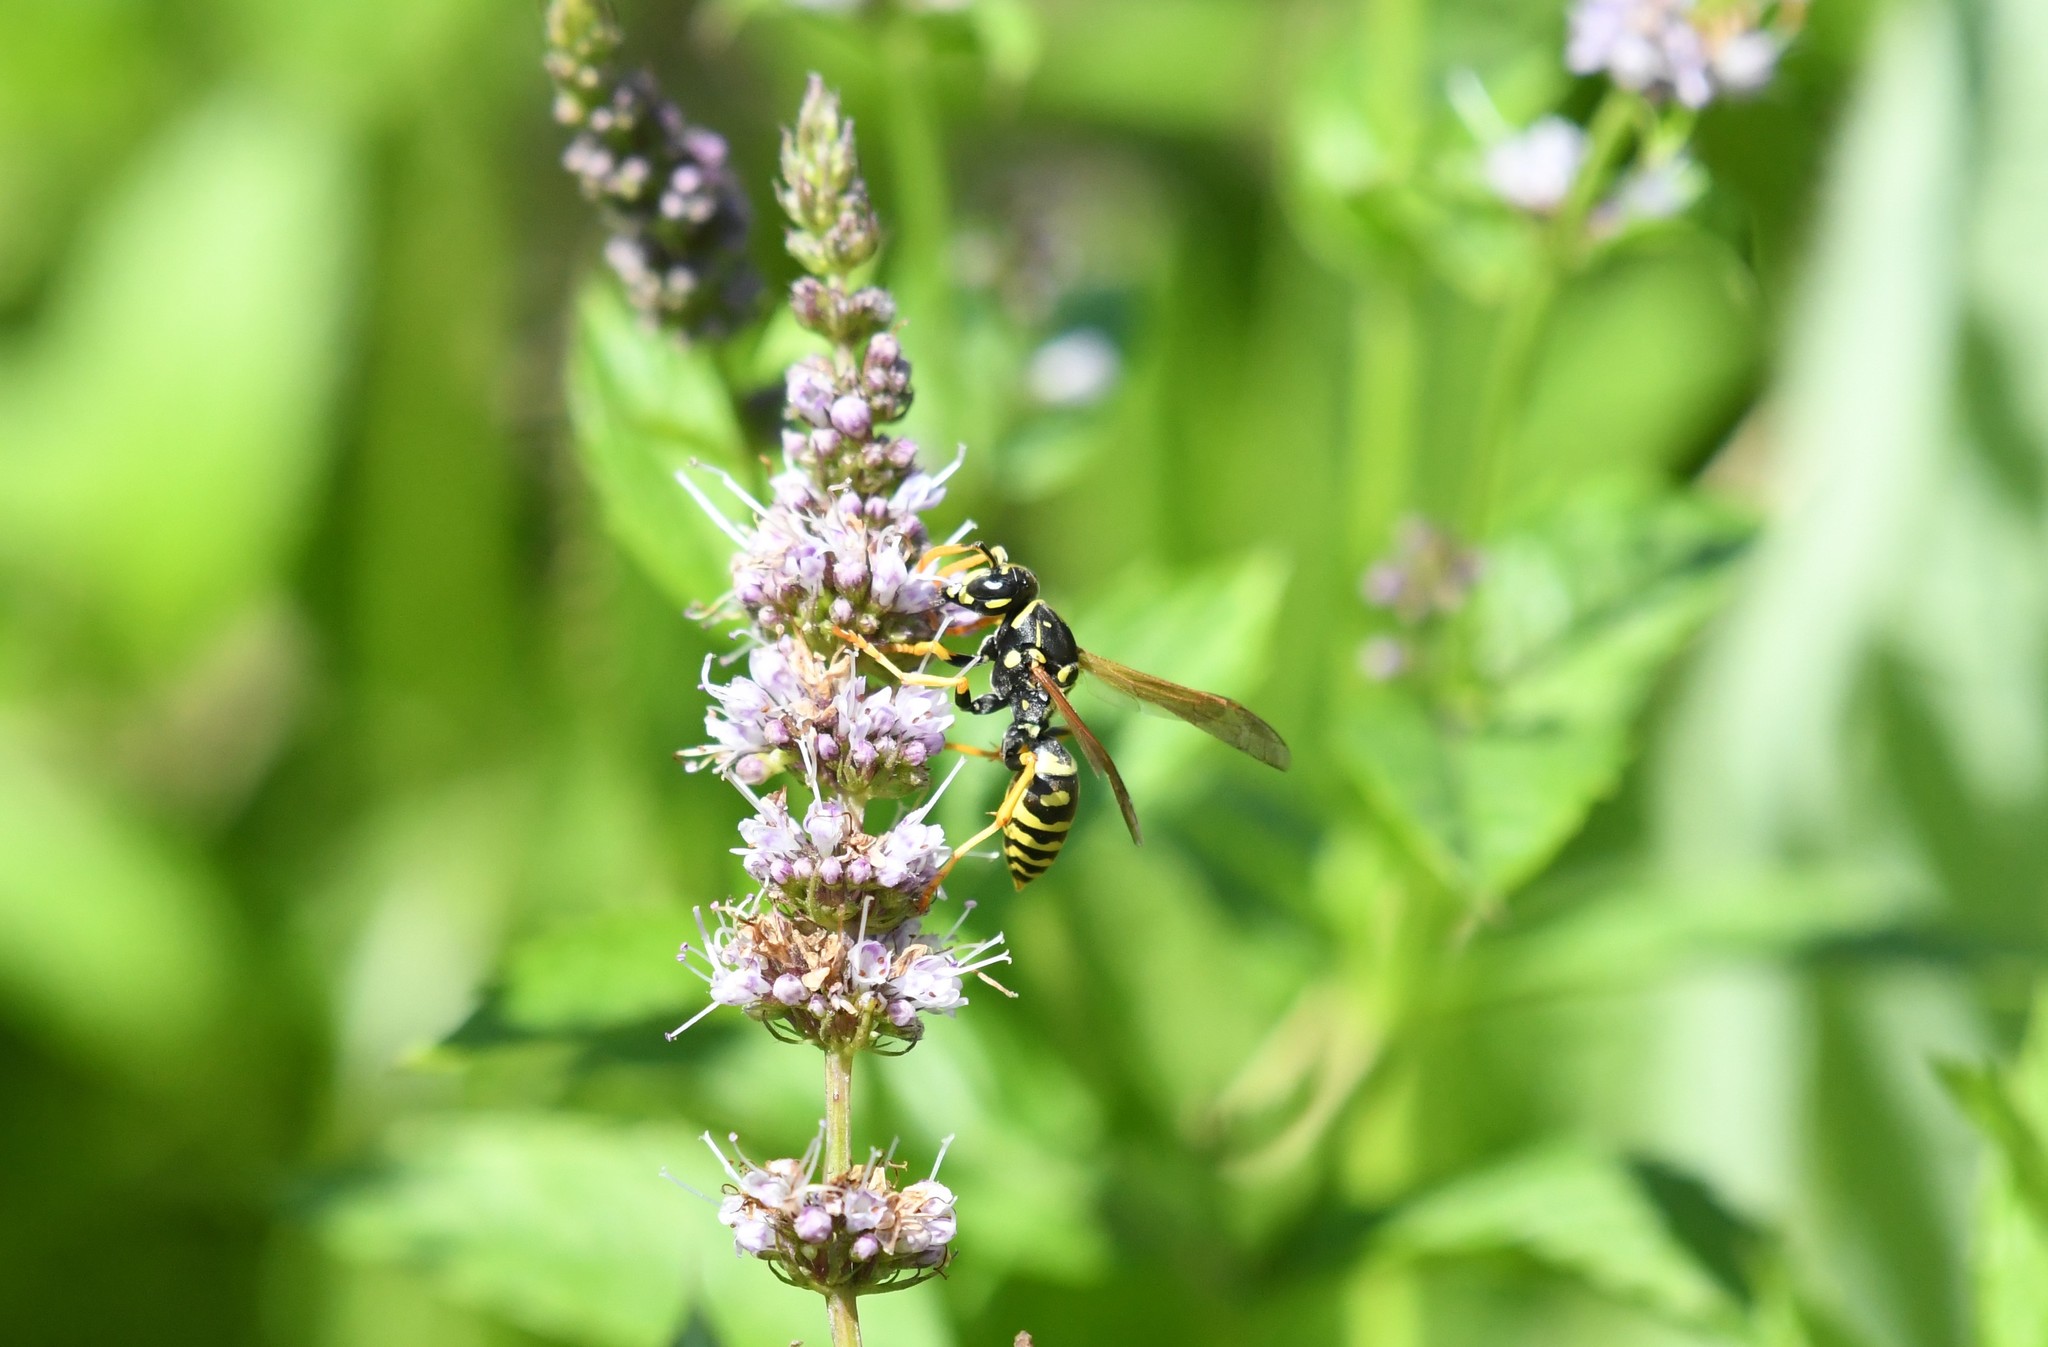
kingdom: Animalia
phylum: Arthropoda
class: Insecta
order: Hymenoptera
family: Eumenidae
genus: Polistes
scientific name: Polistes dominula
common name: Paper wasp
